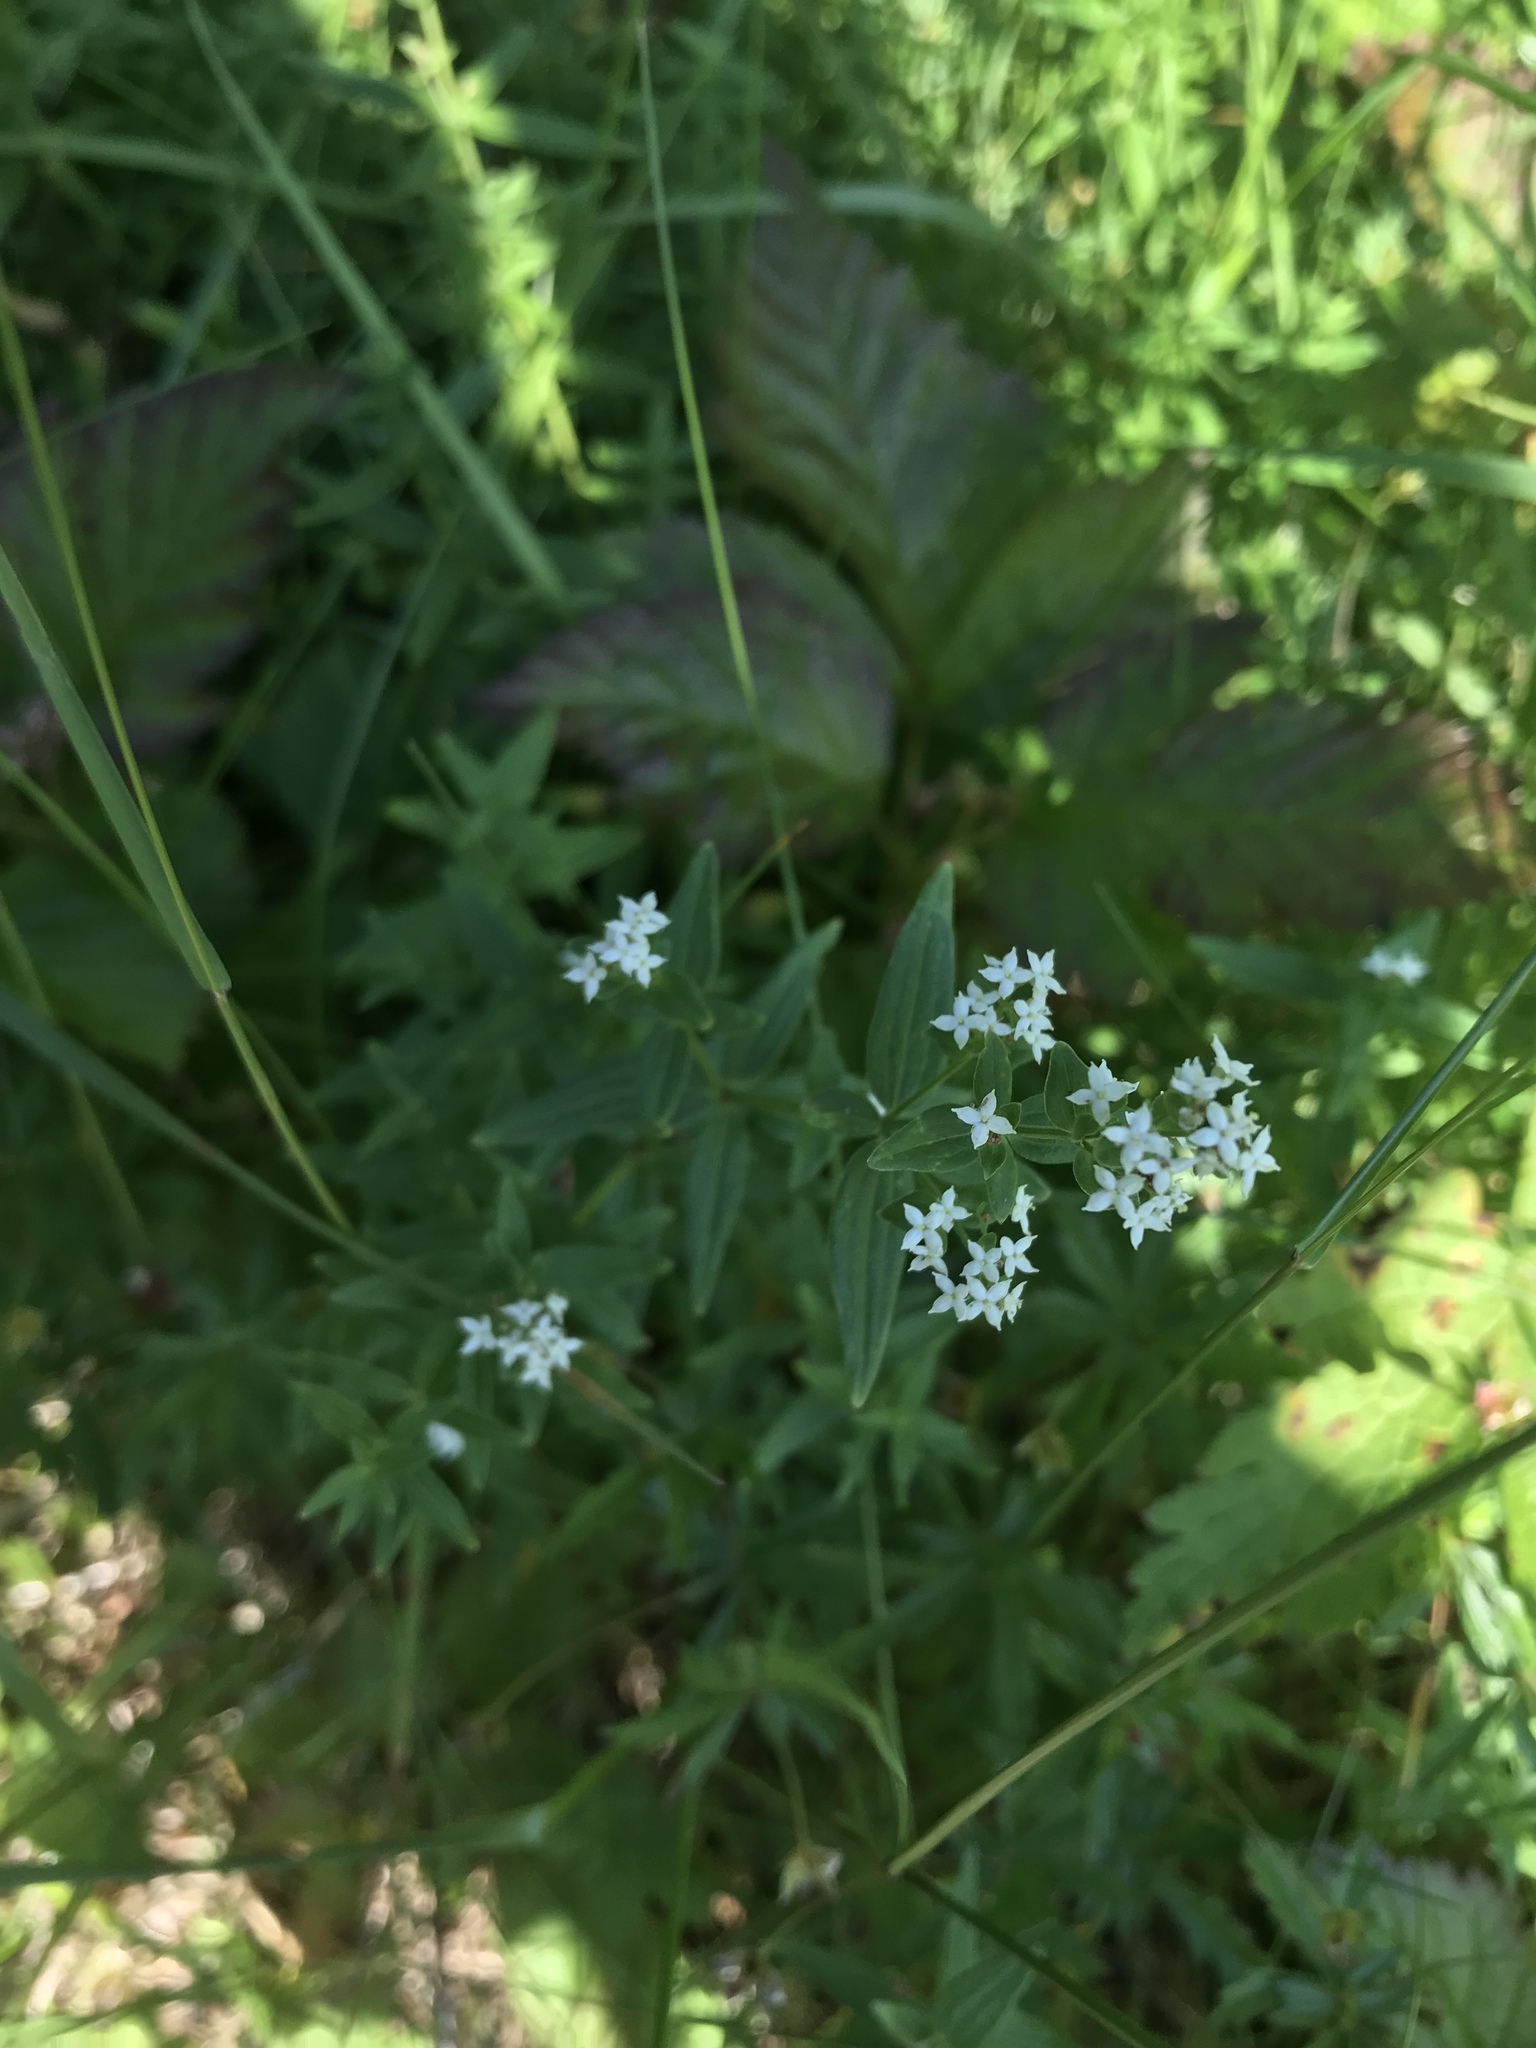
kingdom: Plantae
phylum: Tracheophyta
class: Magnoliopsida
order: Gentianales
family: Rubiaceae
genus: Galium
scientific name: Galium boreale
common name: Northern bedstraw
